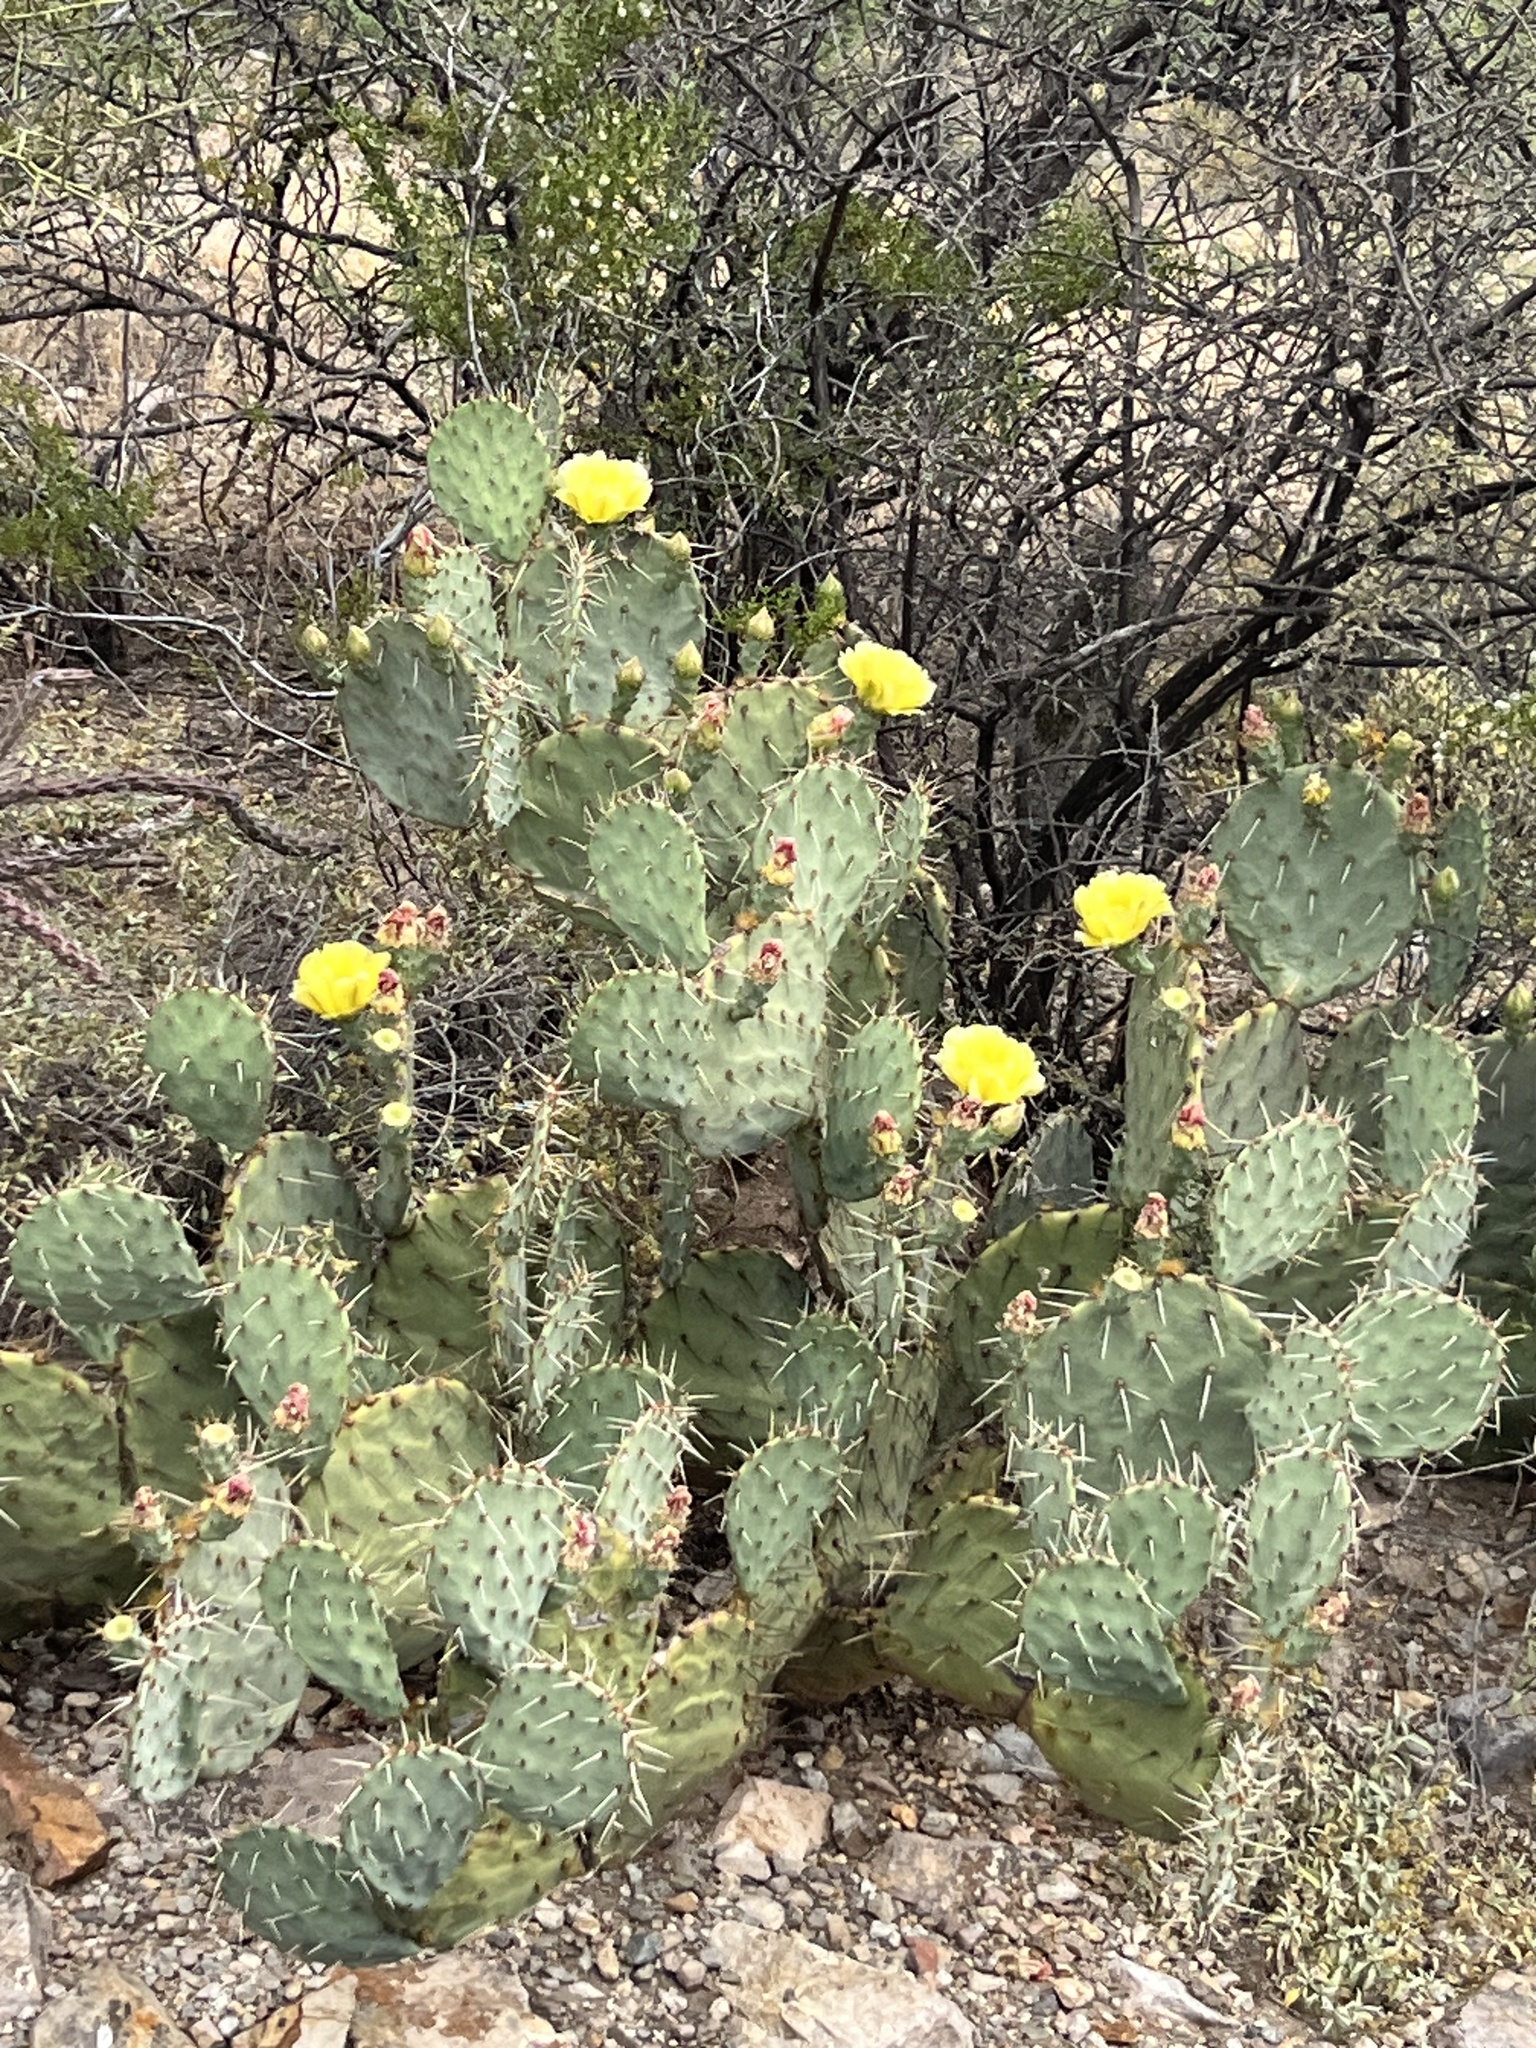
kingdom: Plantae
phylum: Tracheophyta
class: Magnoliopsida
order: Caryophyllales
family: Cactaceae
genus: Opuntia
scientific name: Opuntia engelmannii
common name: Cactus-apple
